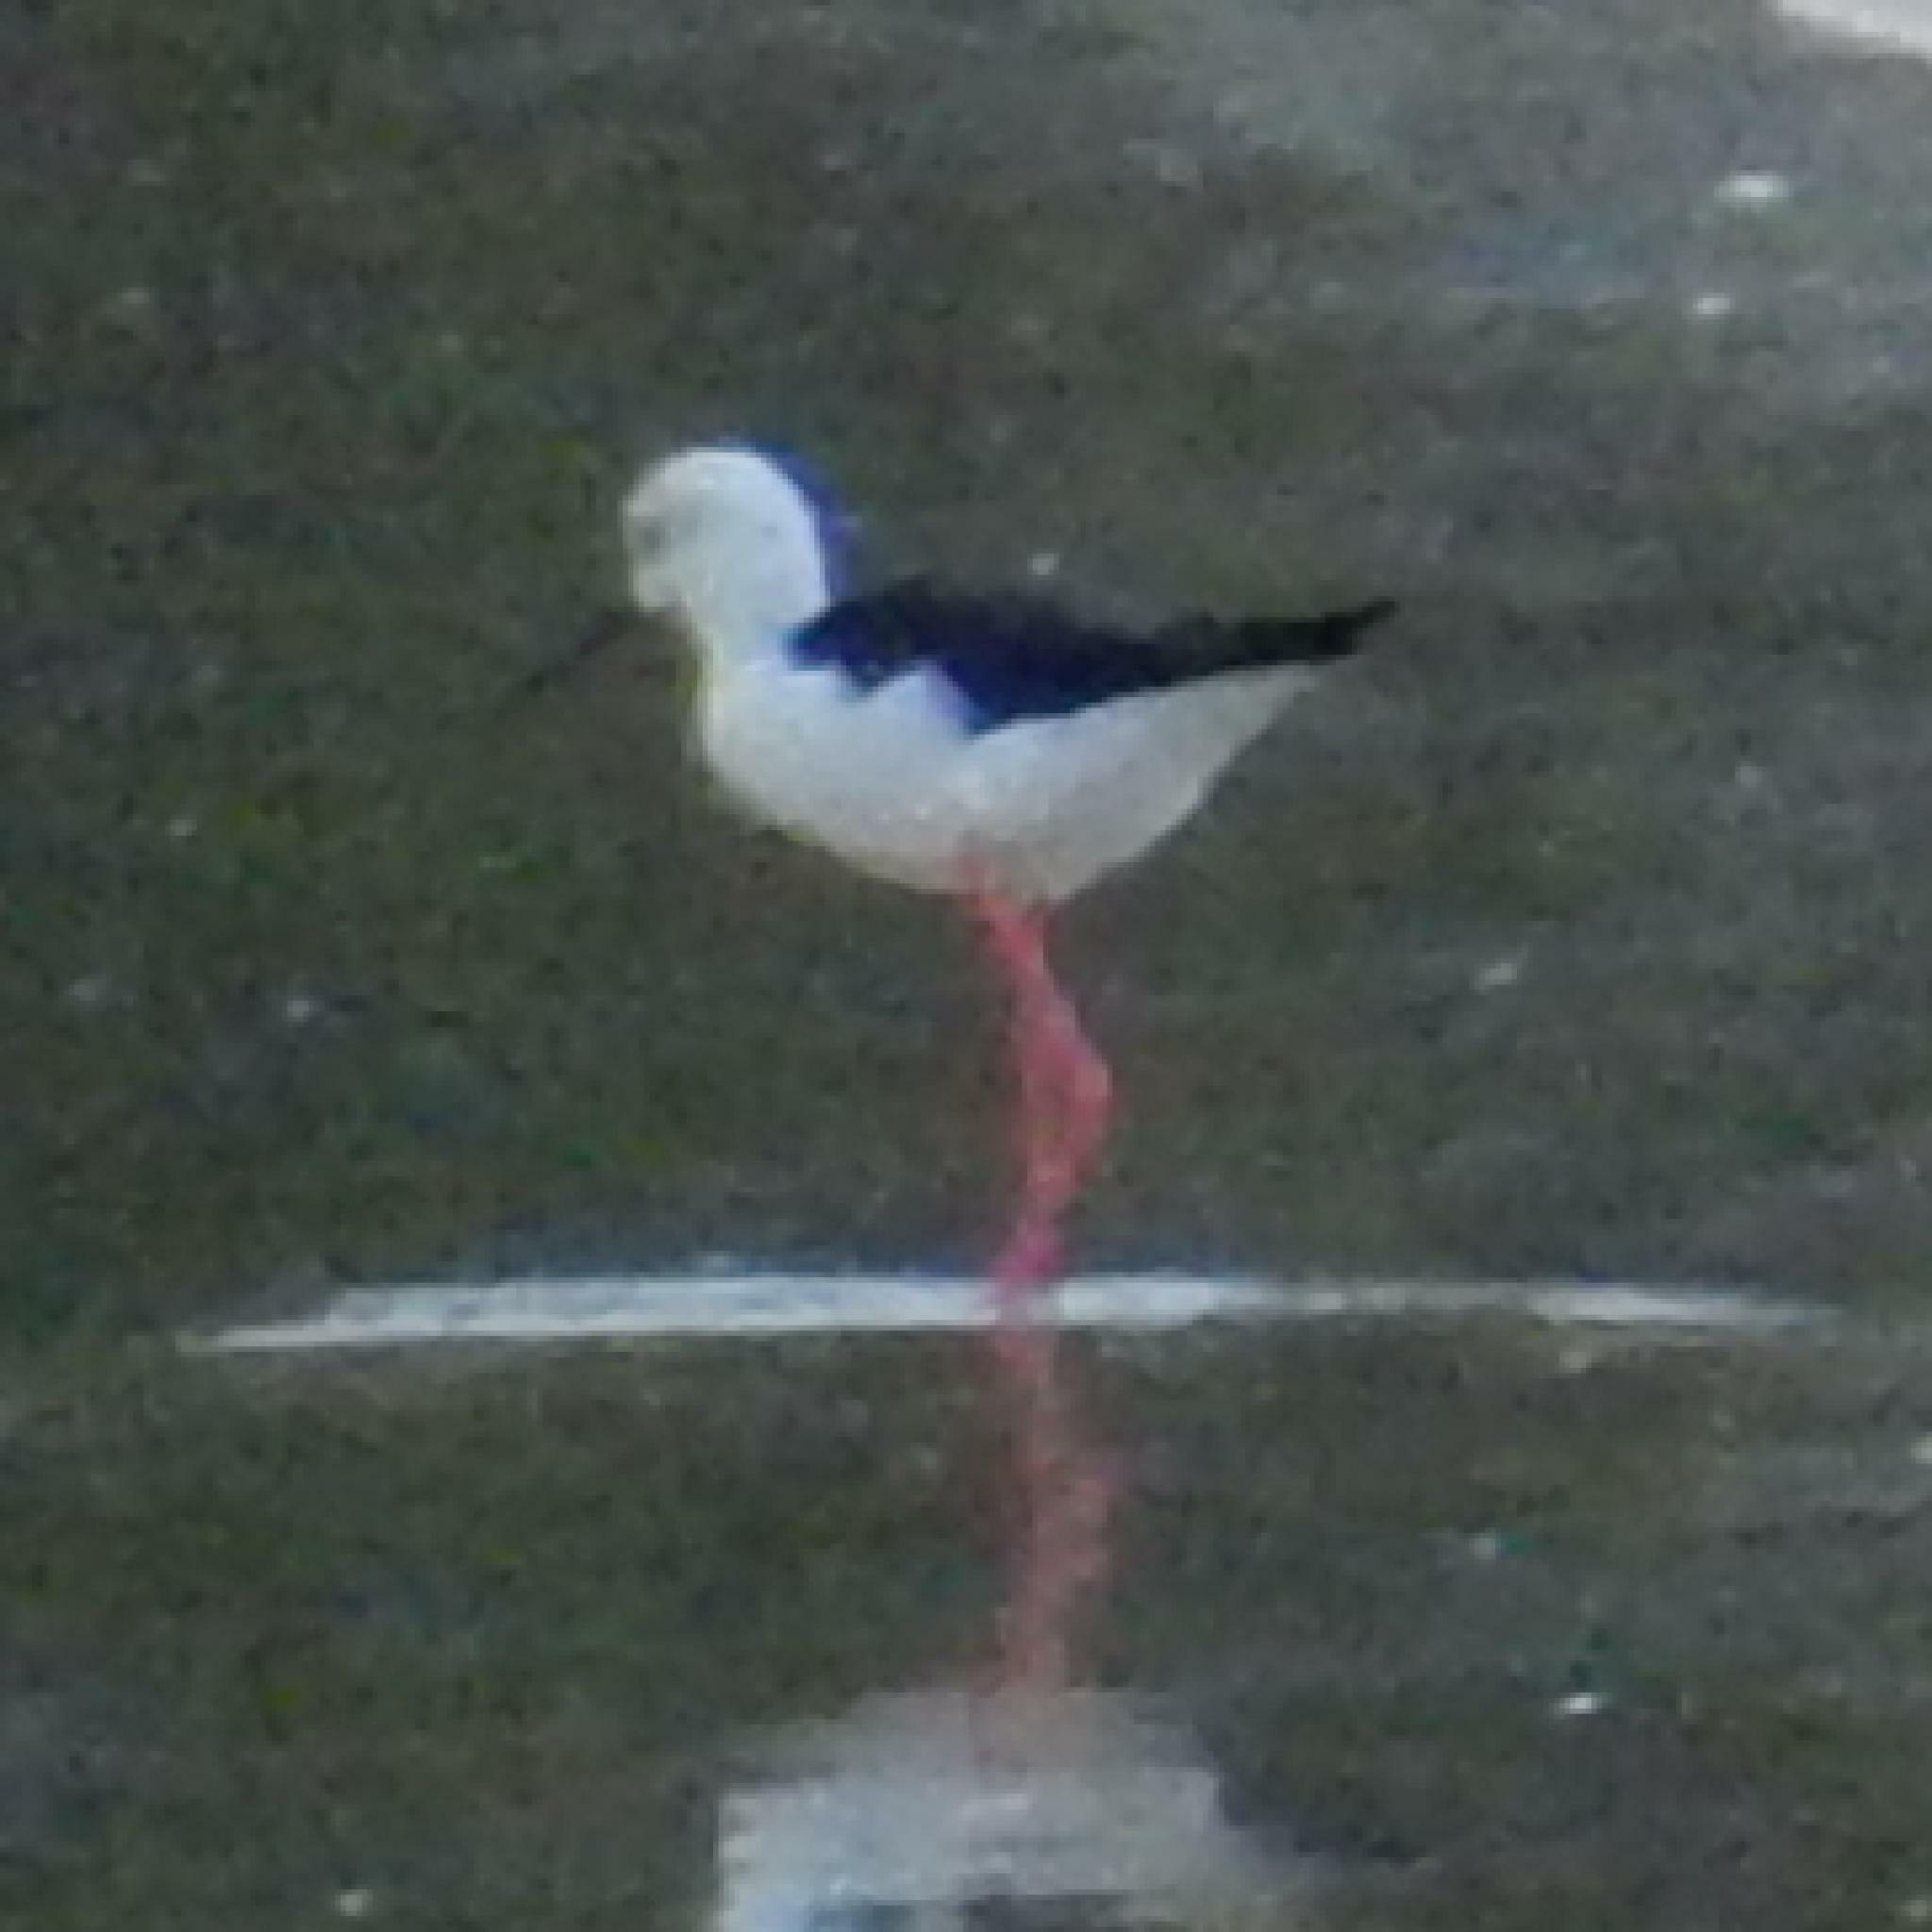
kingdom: Animalia
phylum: Chordata
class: Aves
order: Charadriiformes
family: Recurvirostridae
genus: Himantopus
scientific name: Himantopus himantopus
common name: Black-winged stilt
